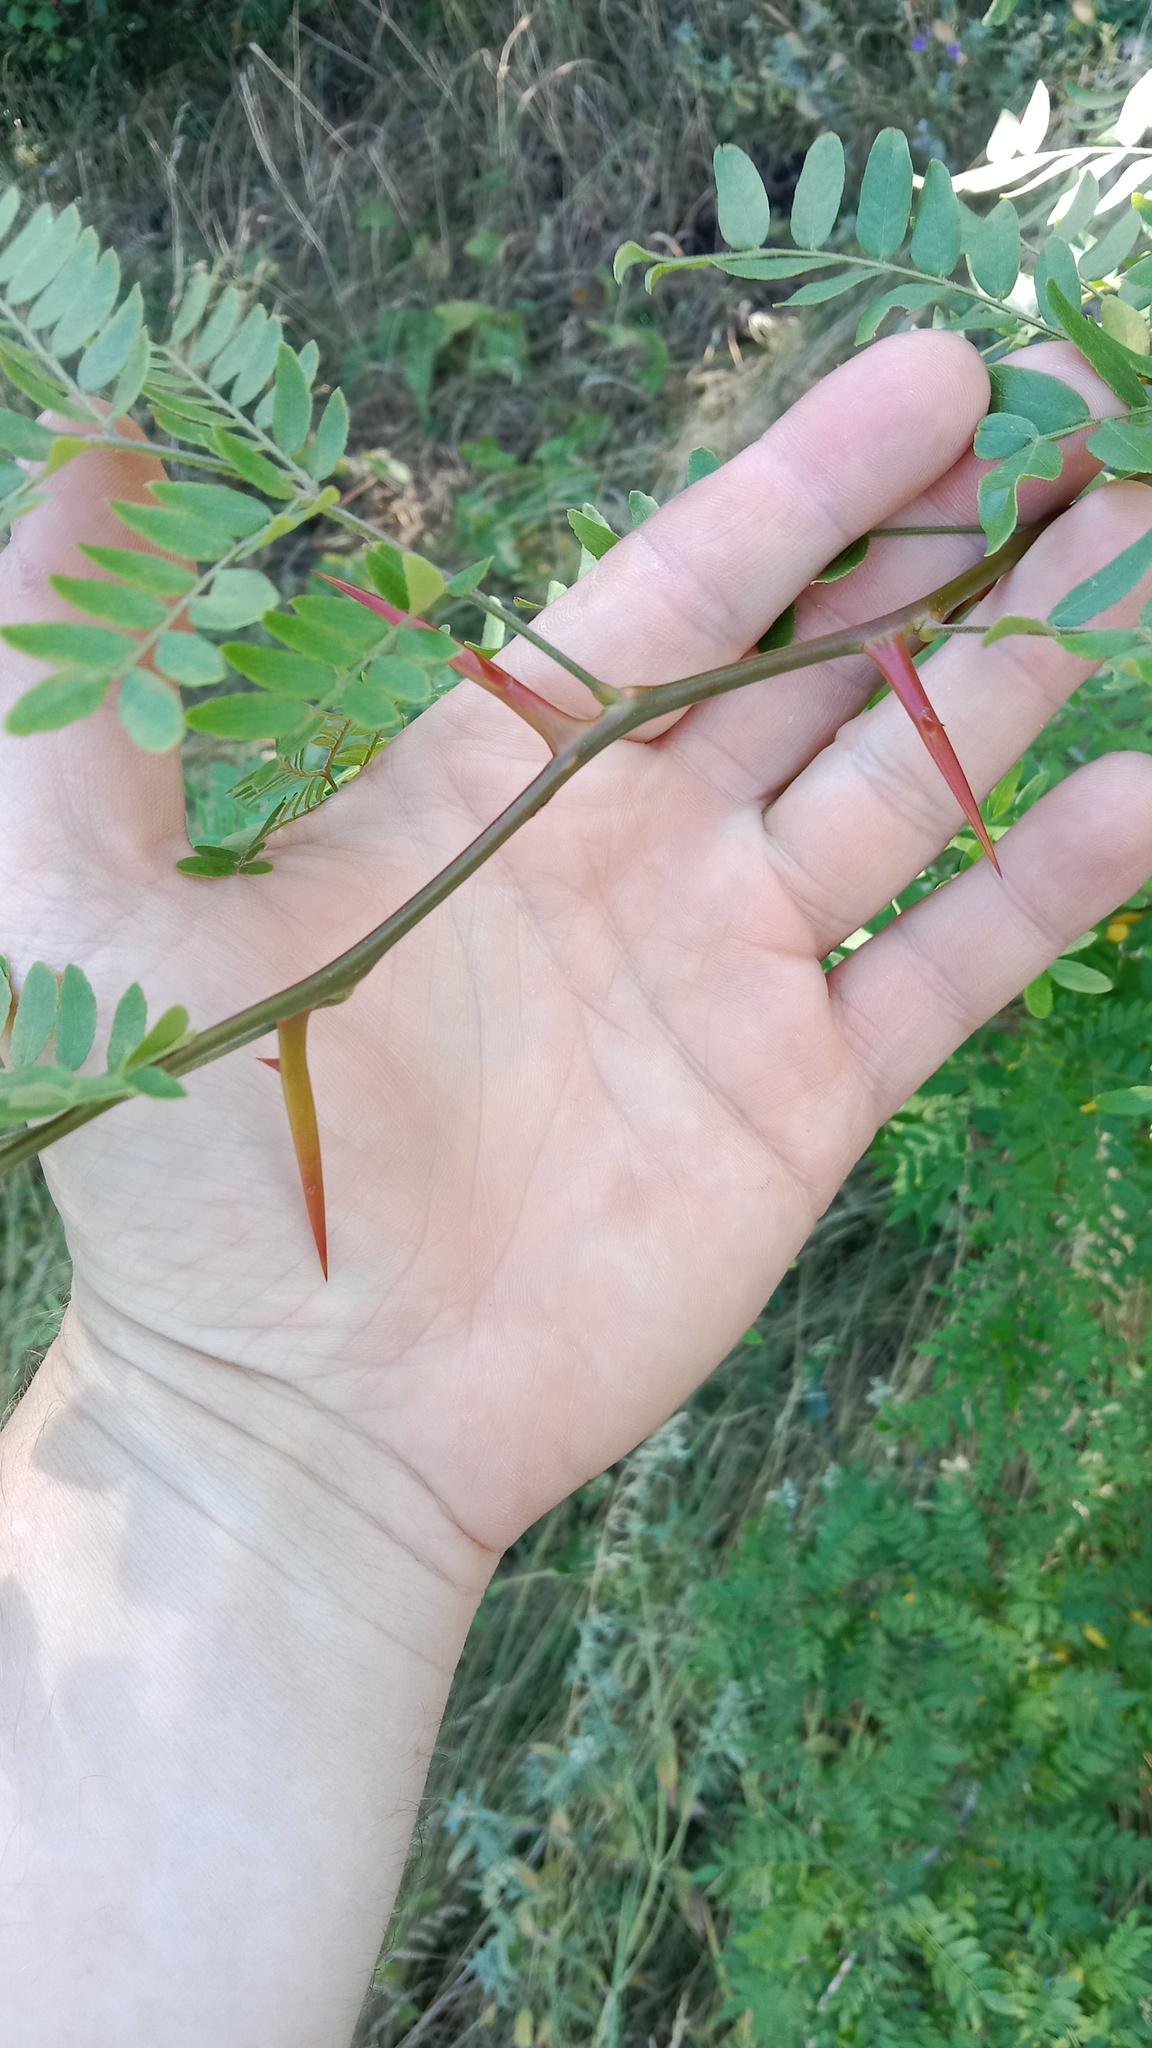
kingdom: Plantae
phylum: Tracheophyta
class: Magnoliopsida
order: Fabales
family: Fabaceae
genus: Gleditsia
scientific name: Gleditsia triacanthos
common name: Common honeylocust
